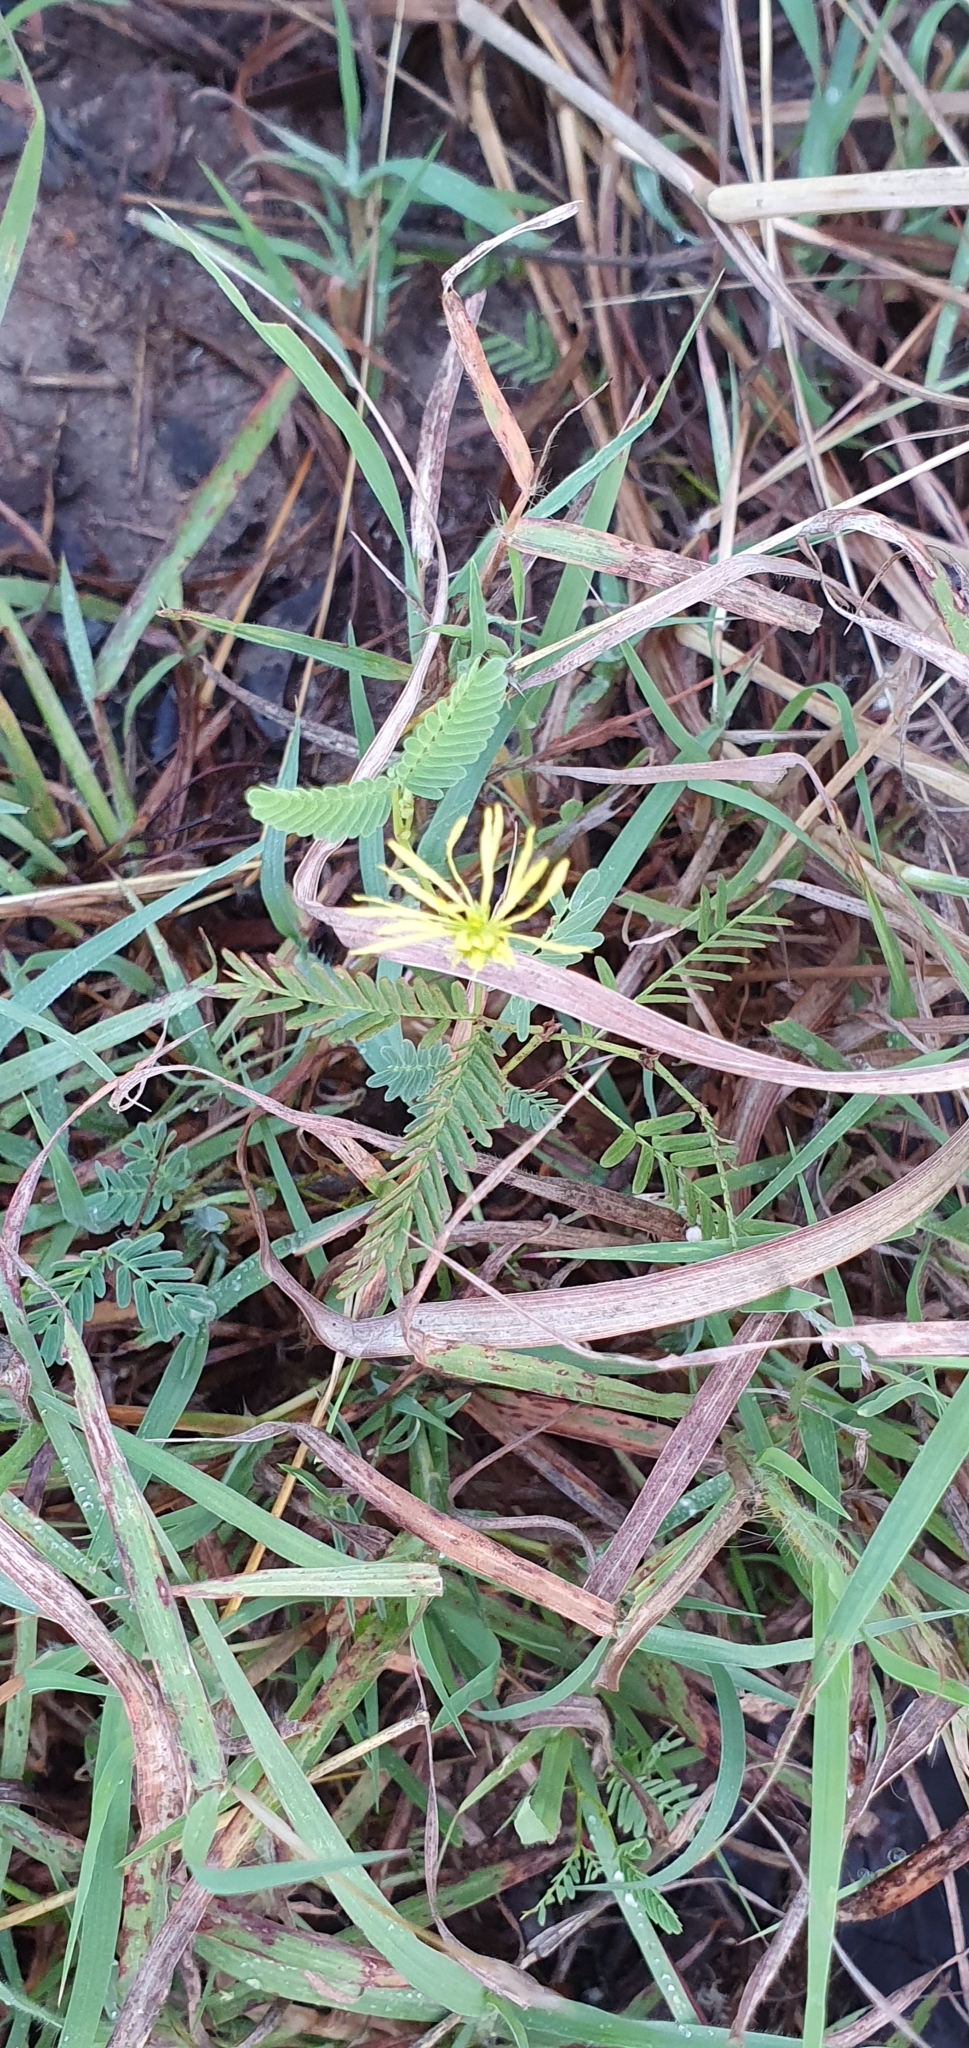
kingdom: Plantae
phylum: Tracheophyta
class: Magnoliopsida
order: Fabales
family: Fabaceae
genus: Neptunia
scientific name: Neptunia gracilis
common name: Sensitive-plant
